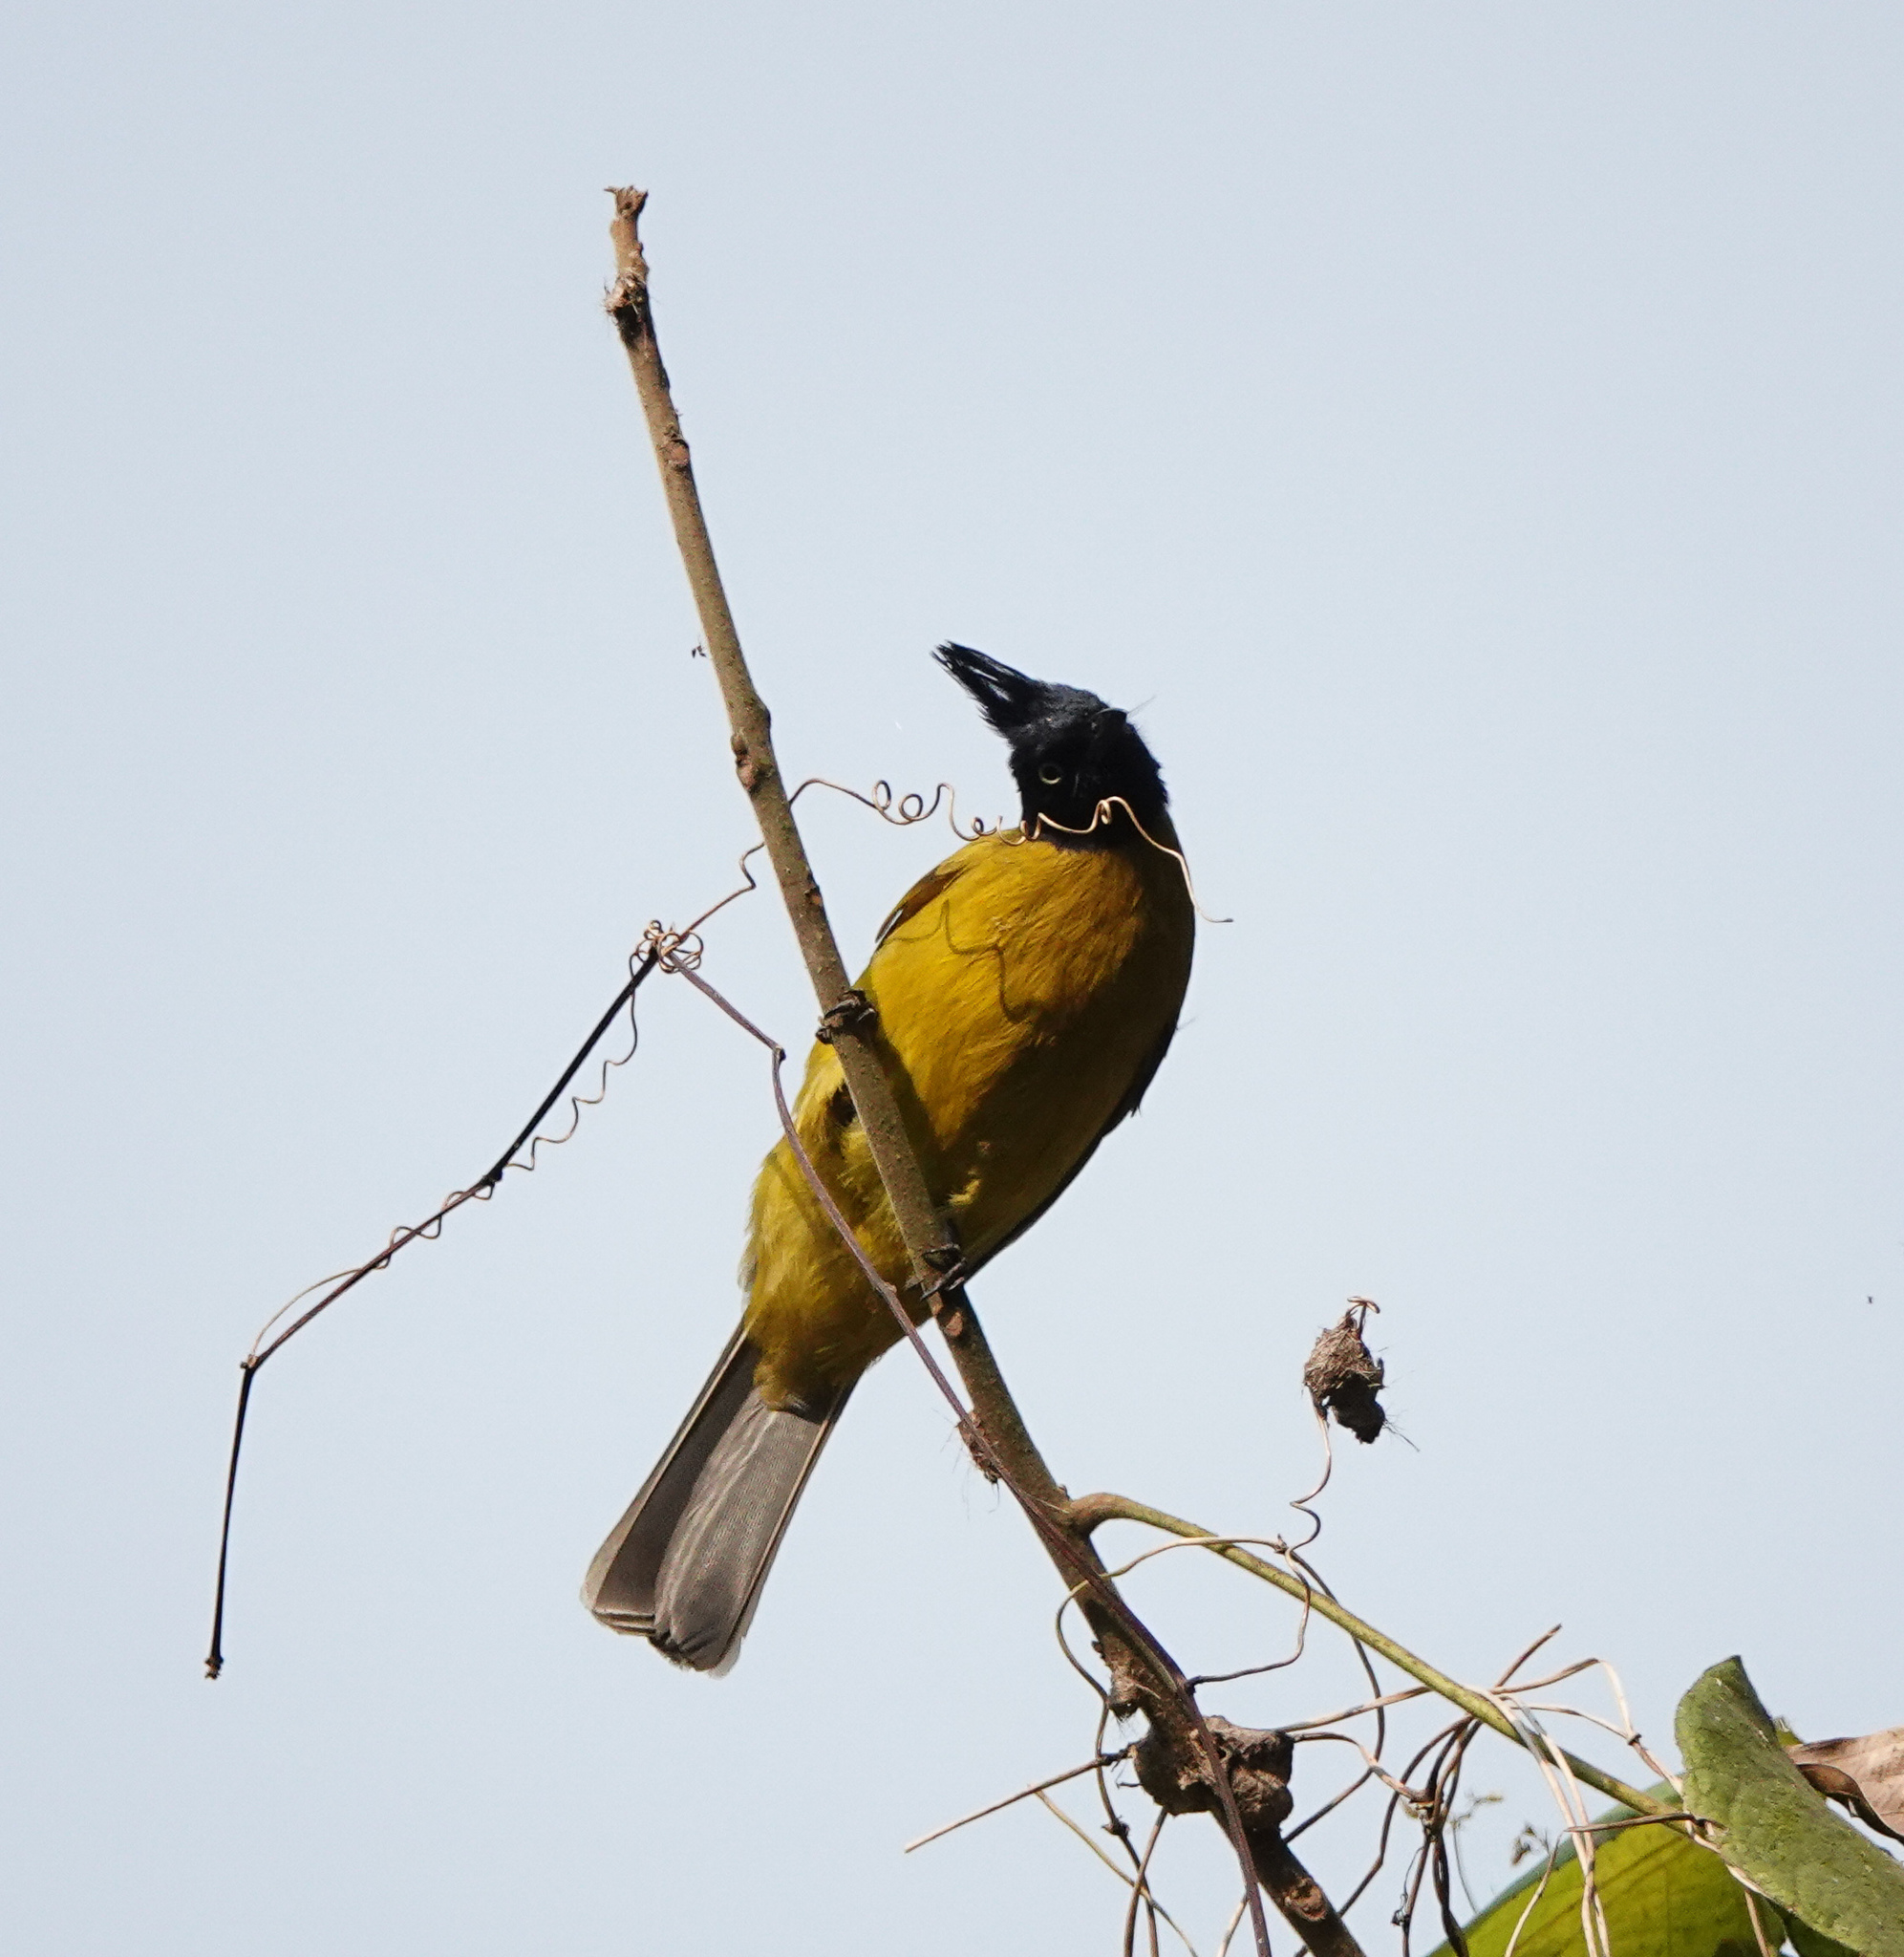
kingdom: Animalia
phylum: Chordata
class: Aves
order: Passeriformes
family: Pycnonotidae
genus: Pycnonotus
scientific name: Pycnonotus flaviventris
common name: Black-crested bulbul
